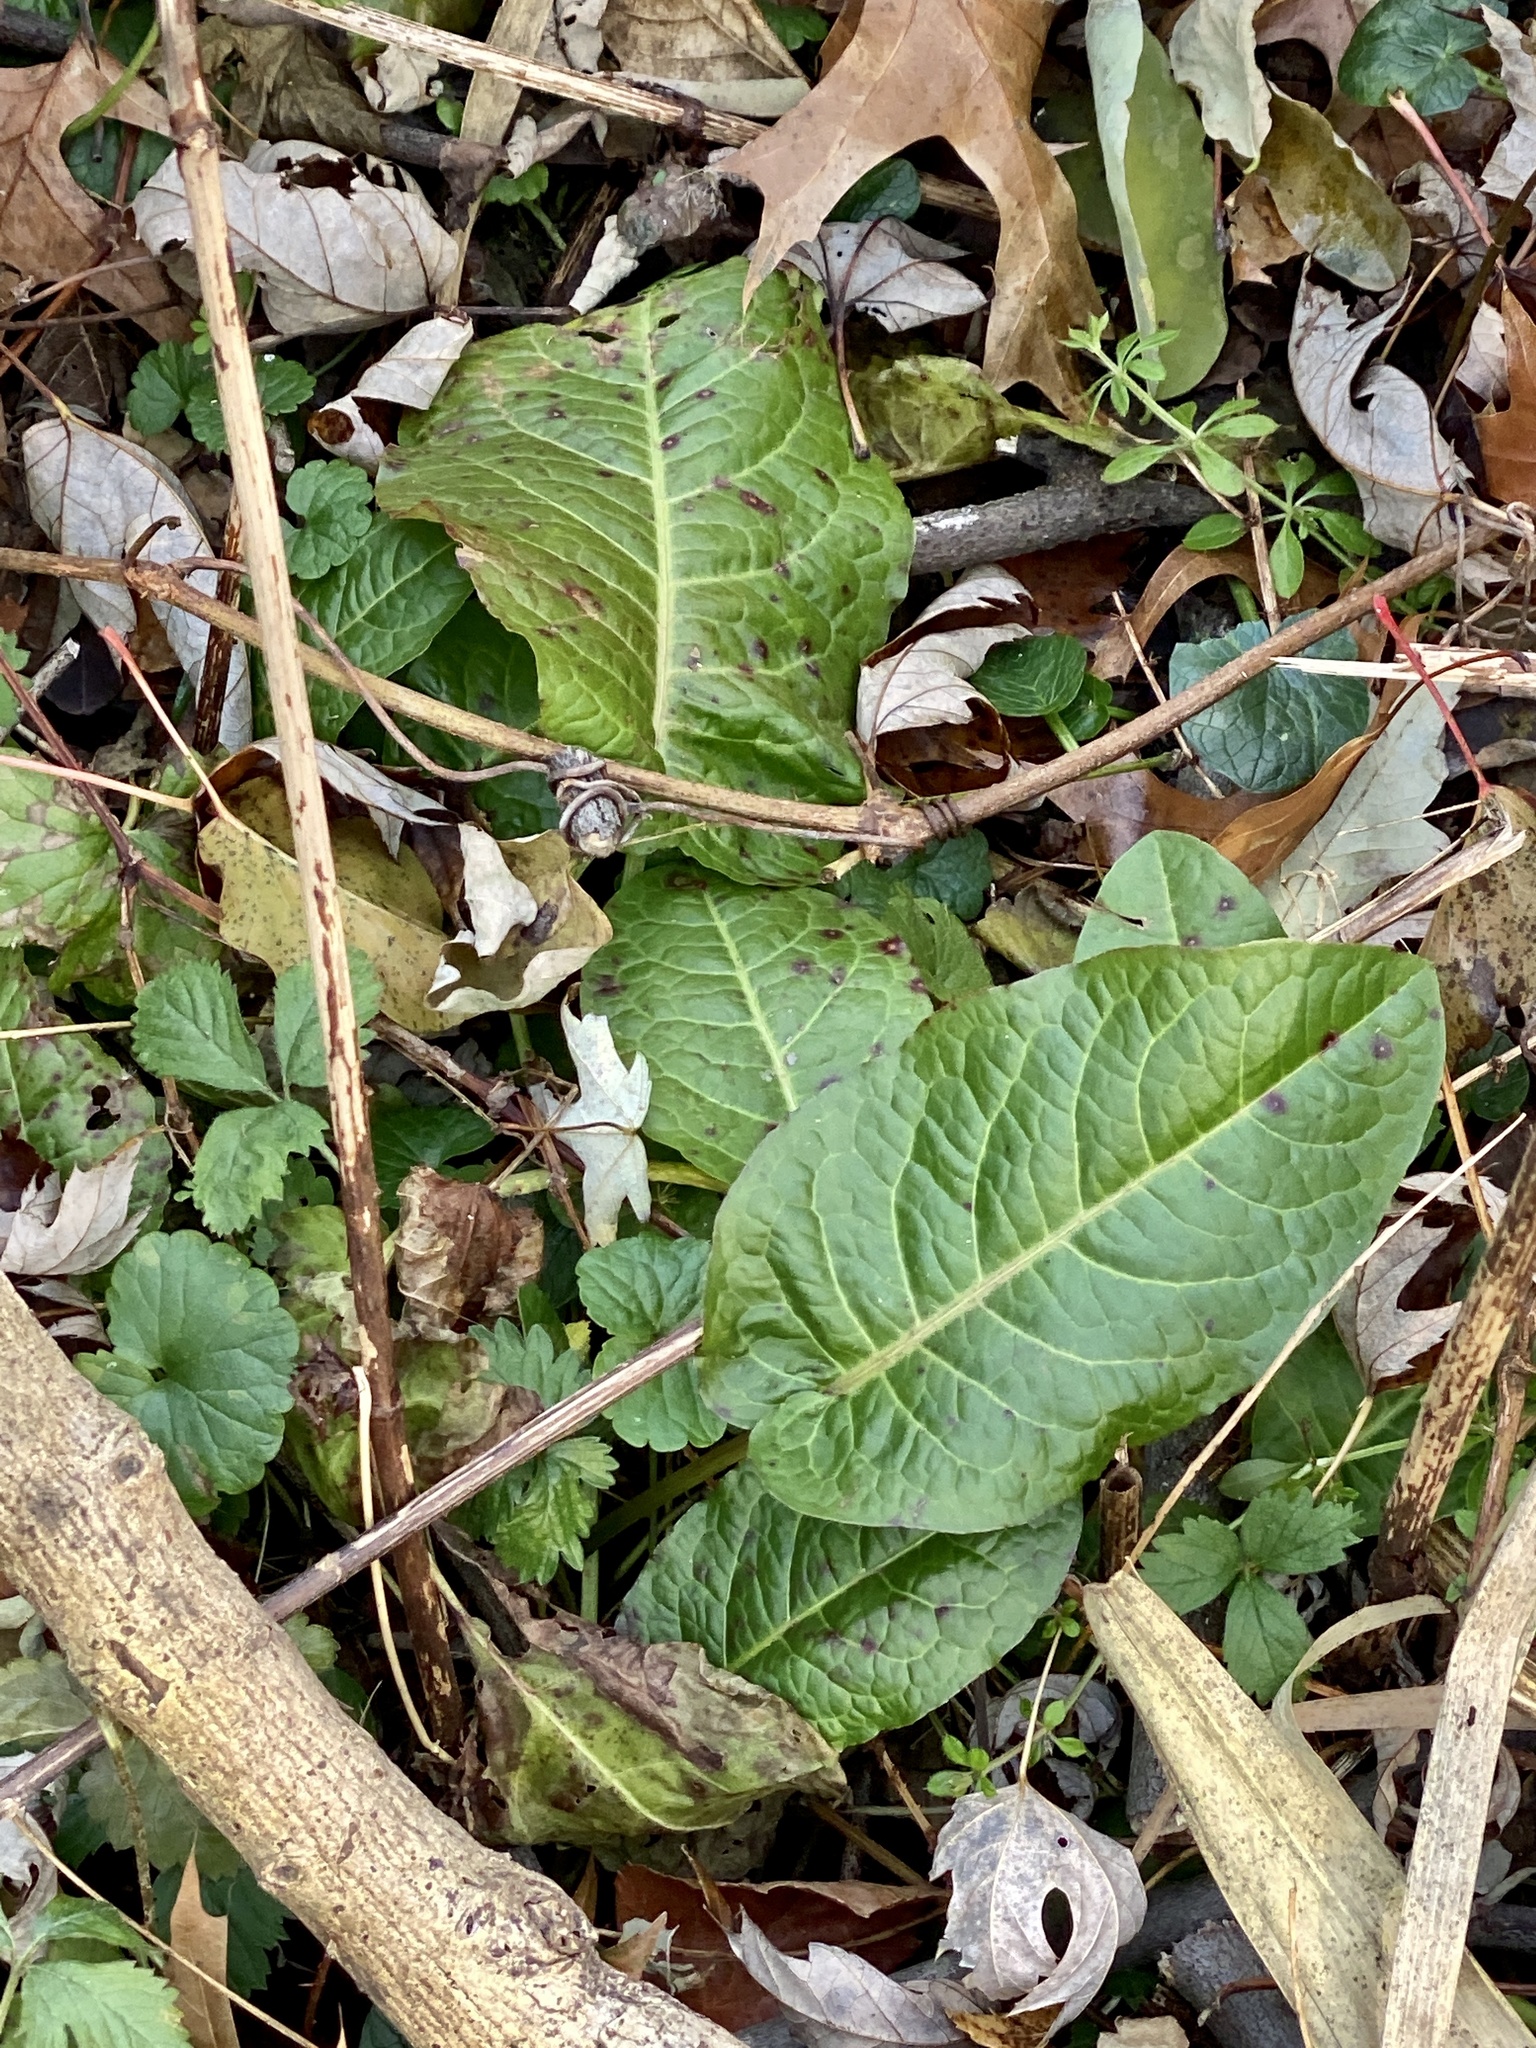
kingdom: Plantae
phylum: Tracheophyta
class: Magnoliopsida
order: Caryophyllales
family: Polygonaceae
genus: Rumex
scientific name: Rumex obtusifolius
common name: Bitter dock
